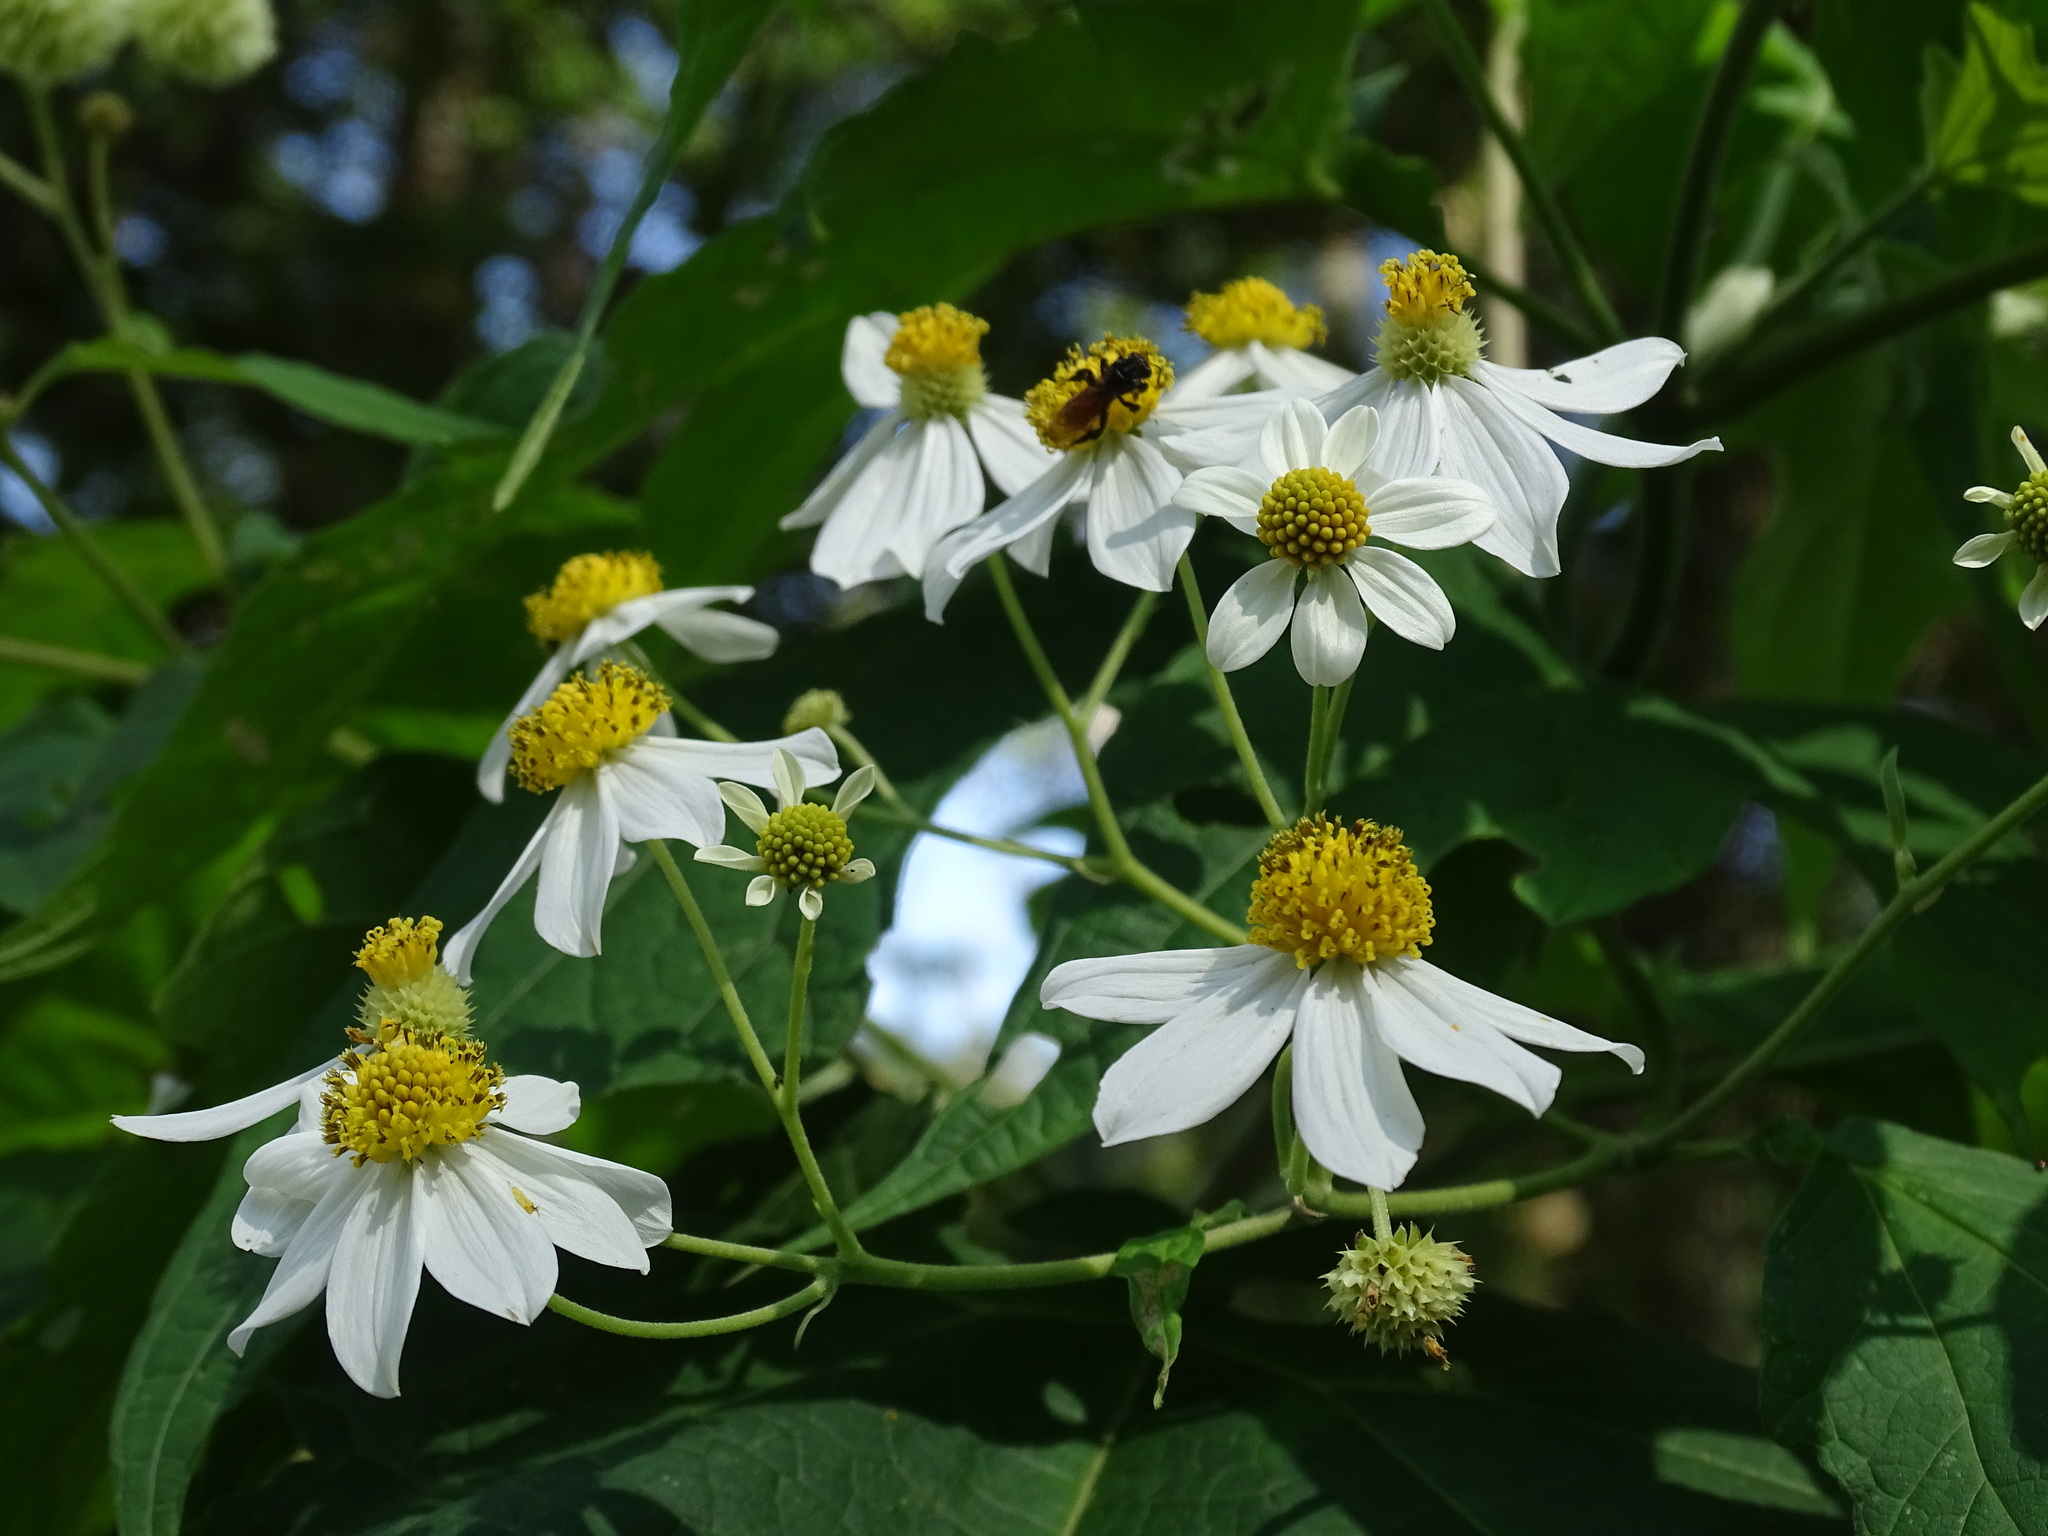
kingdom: Plantae
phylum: Tracheophyta
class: Magnoliopsida
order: Asterales
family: Asteraceae
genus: Montanoa
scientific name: Montanoa hibiscifolia
